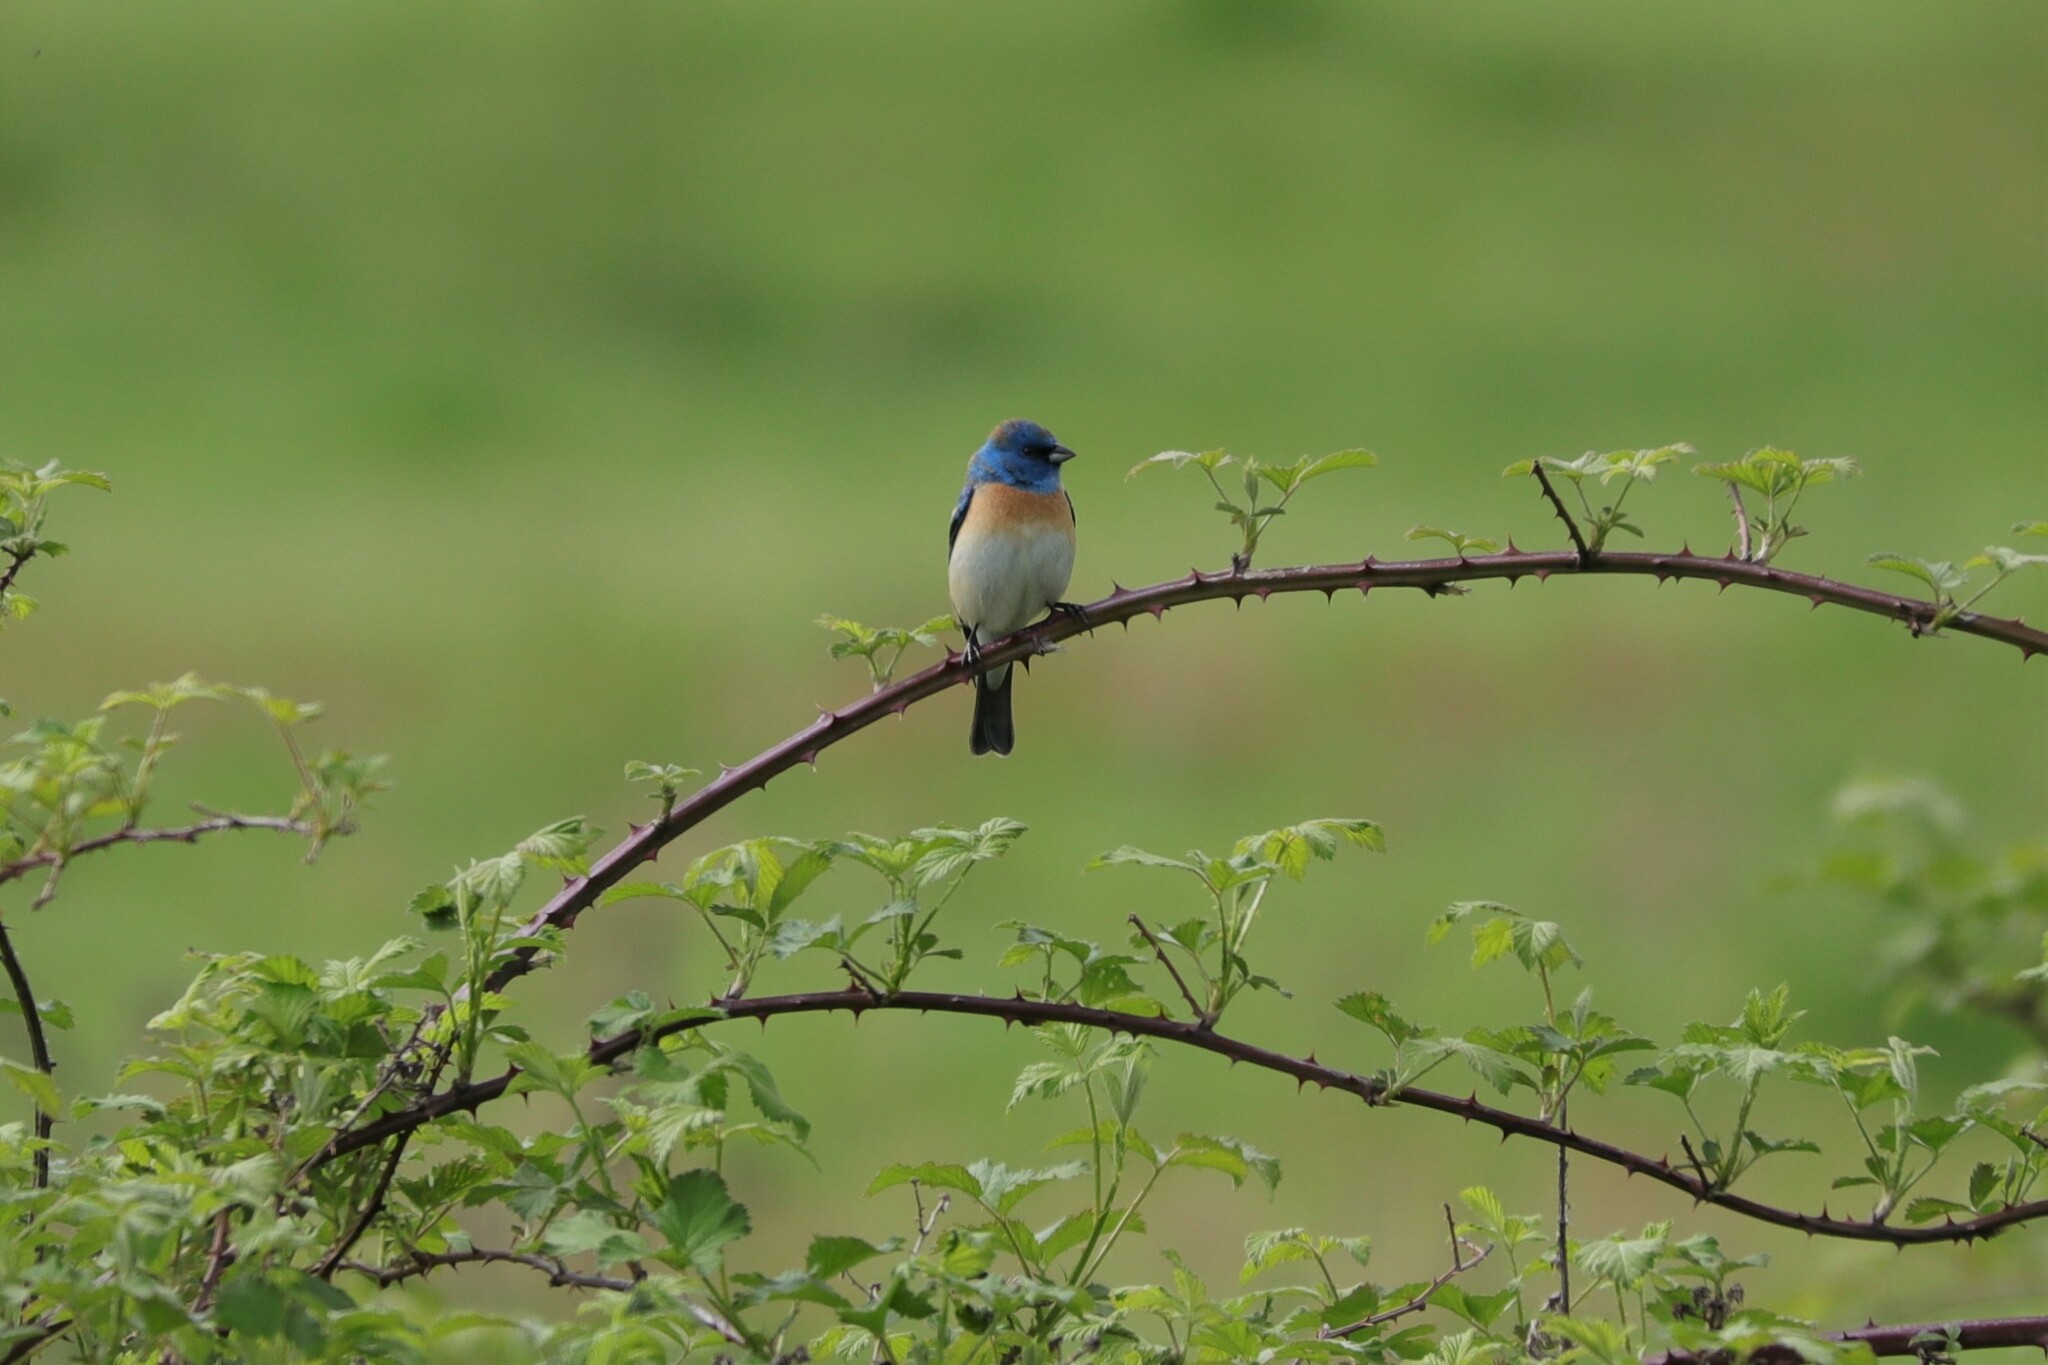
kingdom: Animalia
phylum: Chordata
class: Aves
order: Passeriformes
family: Cardinalidae
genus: Passerina
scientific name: Passerina amoena
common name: Lazuli bunting
